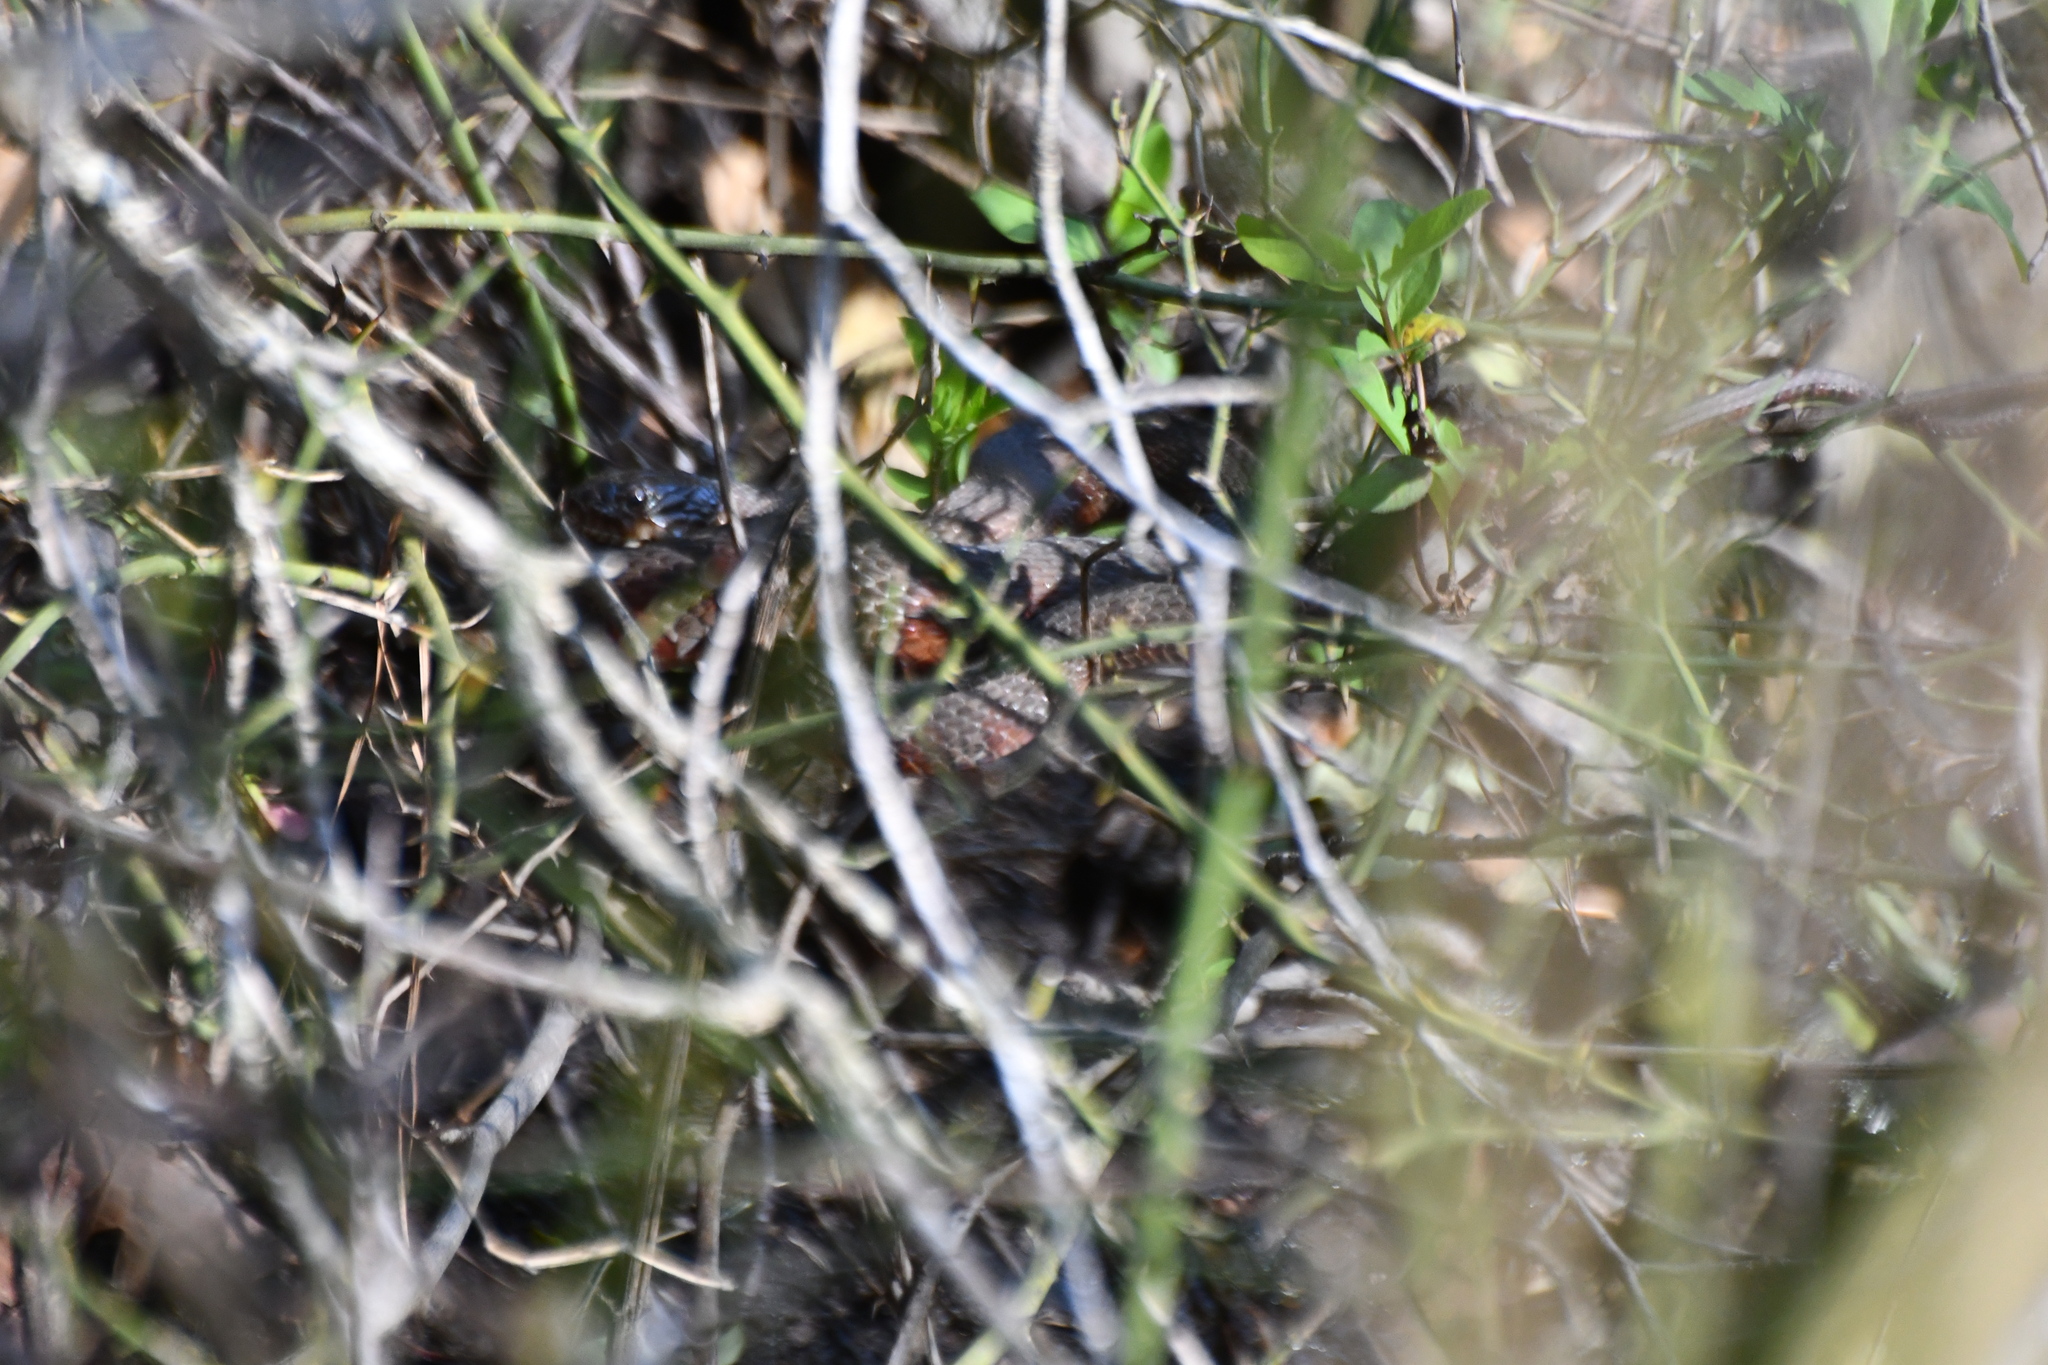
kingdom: Animalia
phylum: Chordata
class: Squamata
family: Colubridae
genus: Nerodia
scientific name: Nerodia sipedon
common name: Northern water snake
